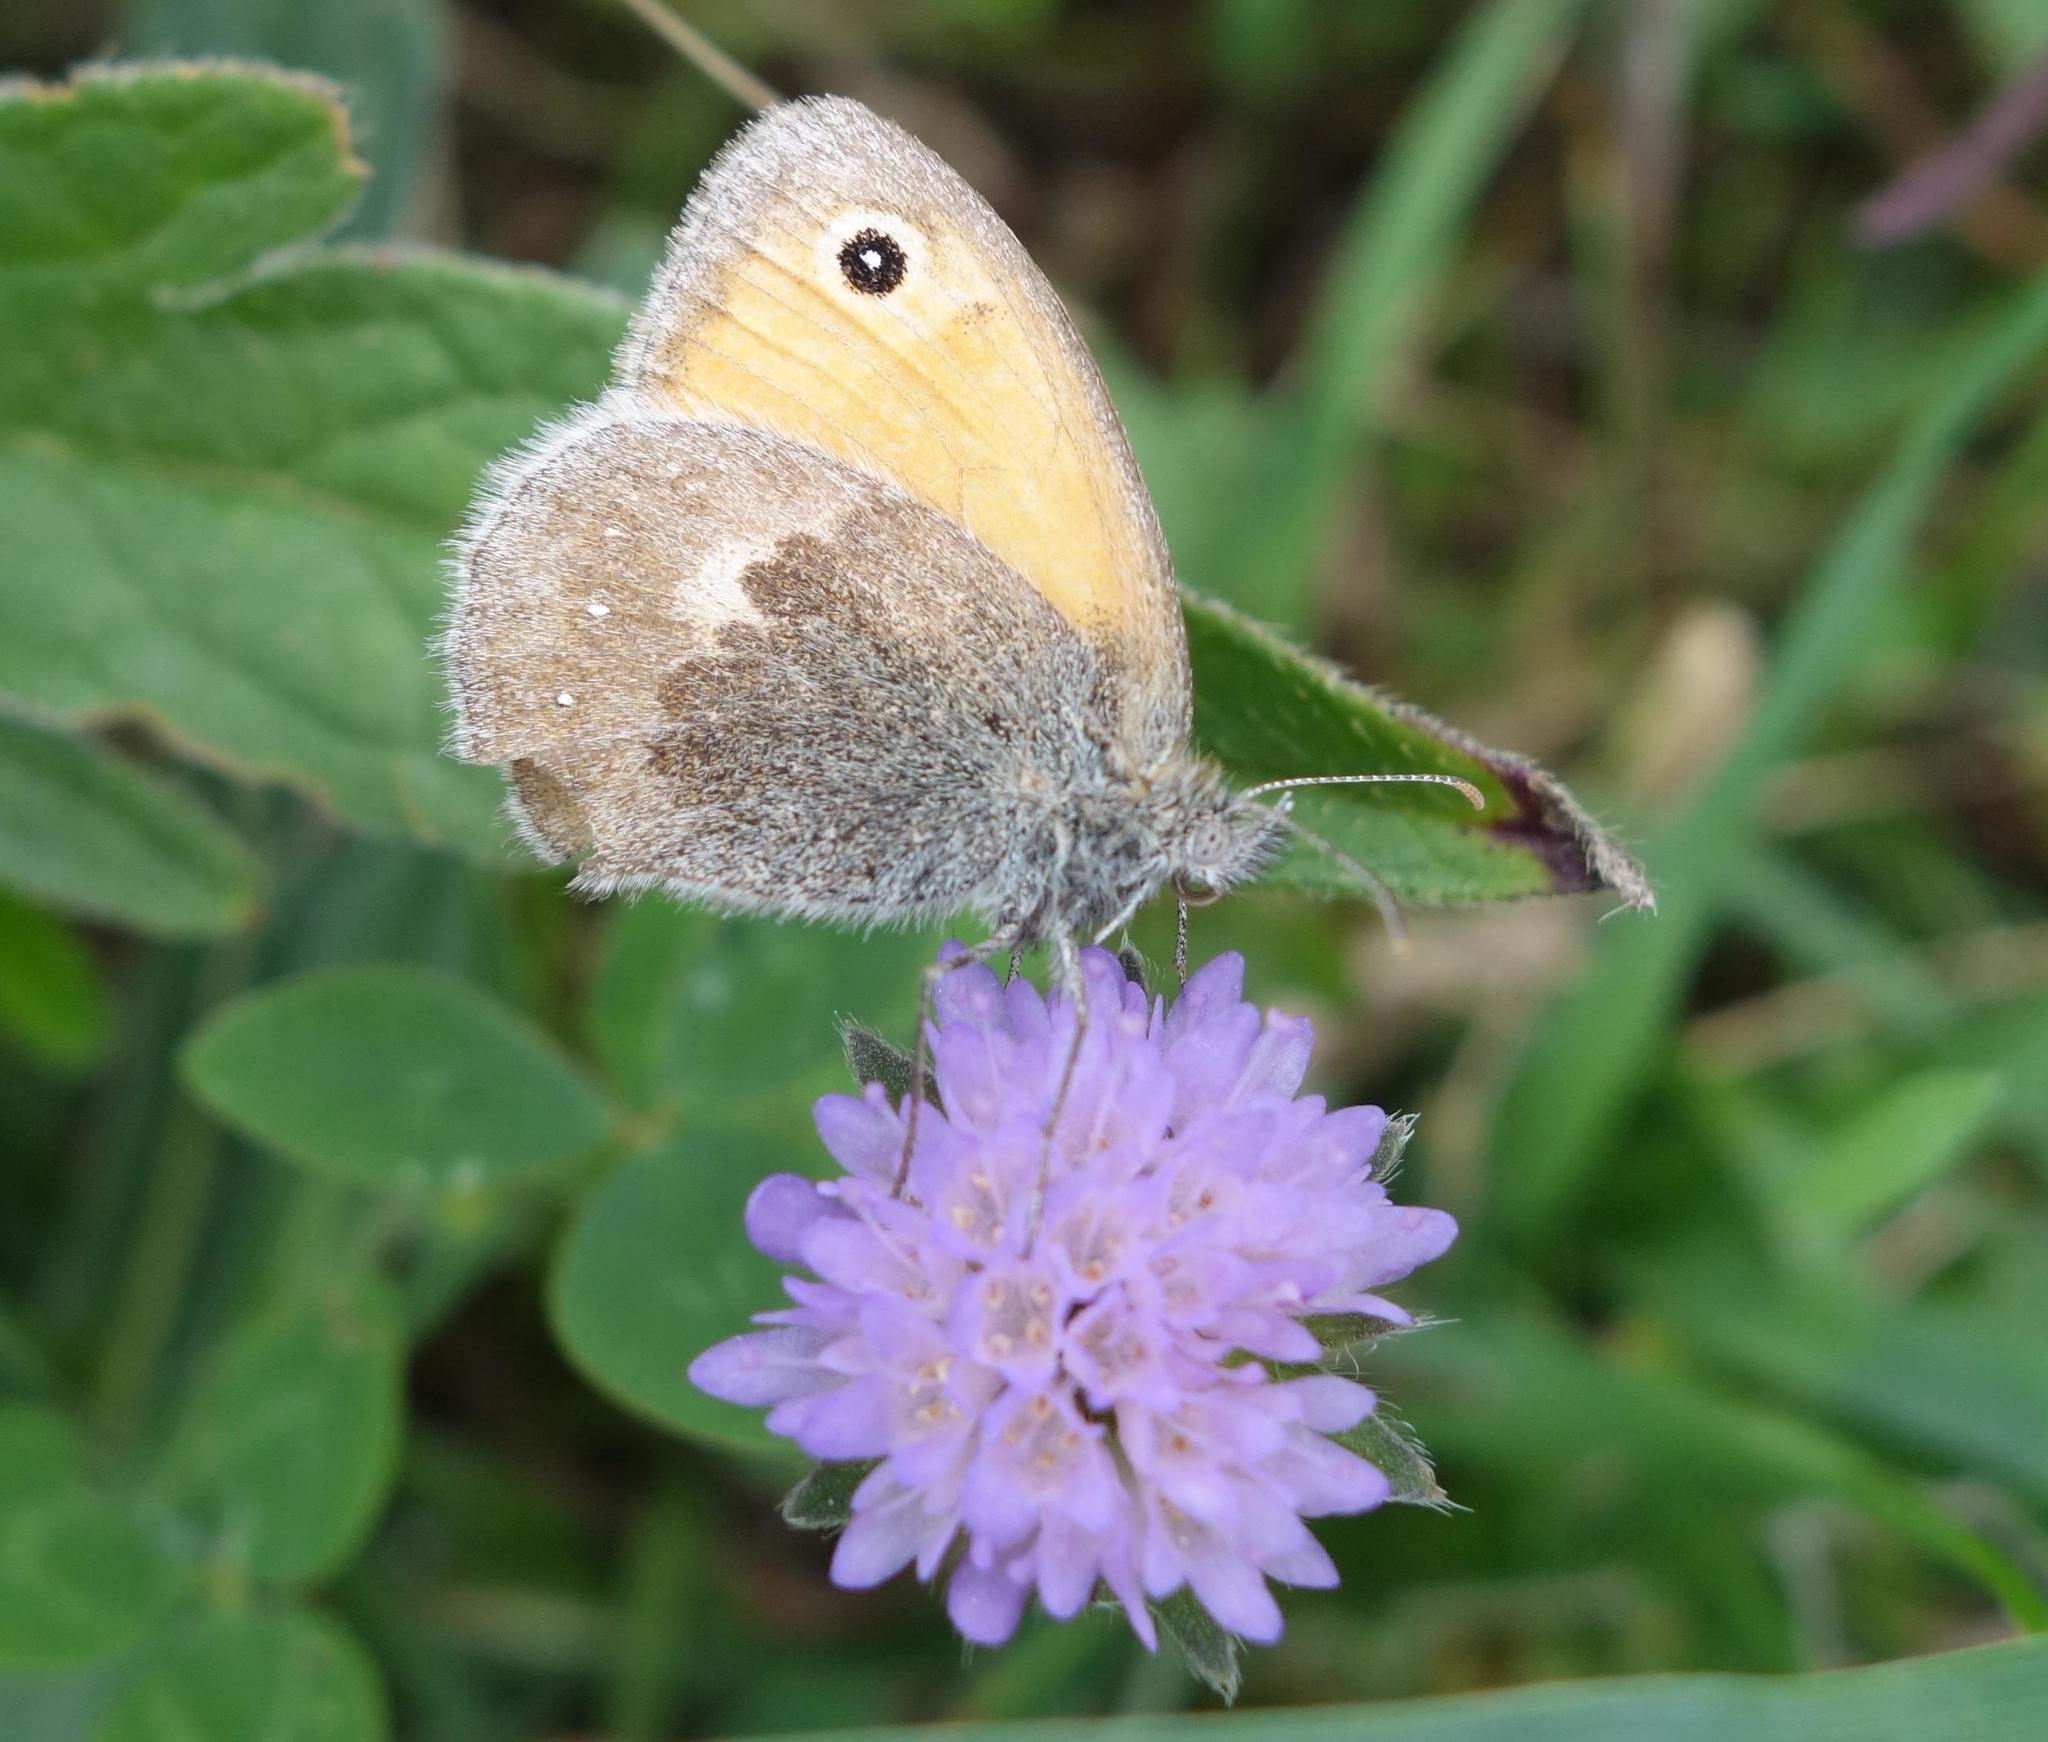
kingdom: Animalia
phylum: Arthropoda
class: Insecta
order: Lepidoptera
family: Nymphalidae
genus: Coenonympha
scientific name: Coenonympha pamphilus
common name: Small heath
